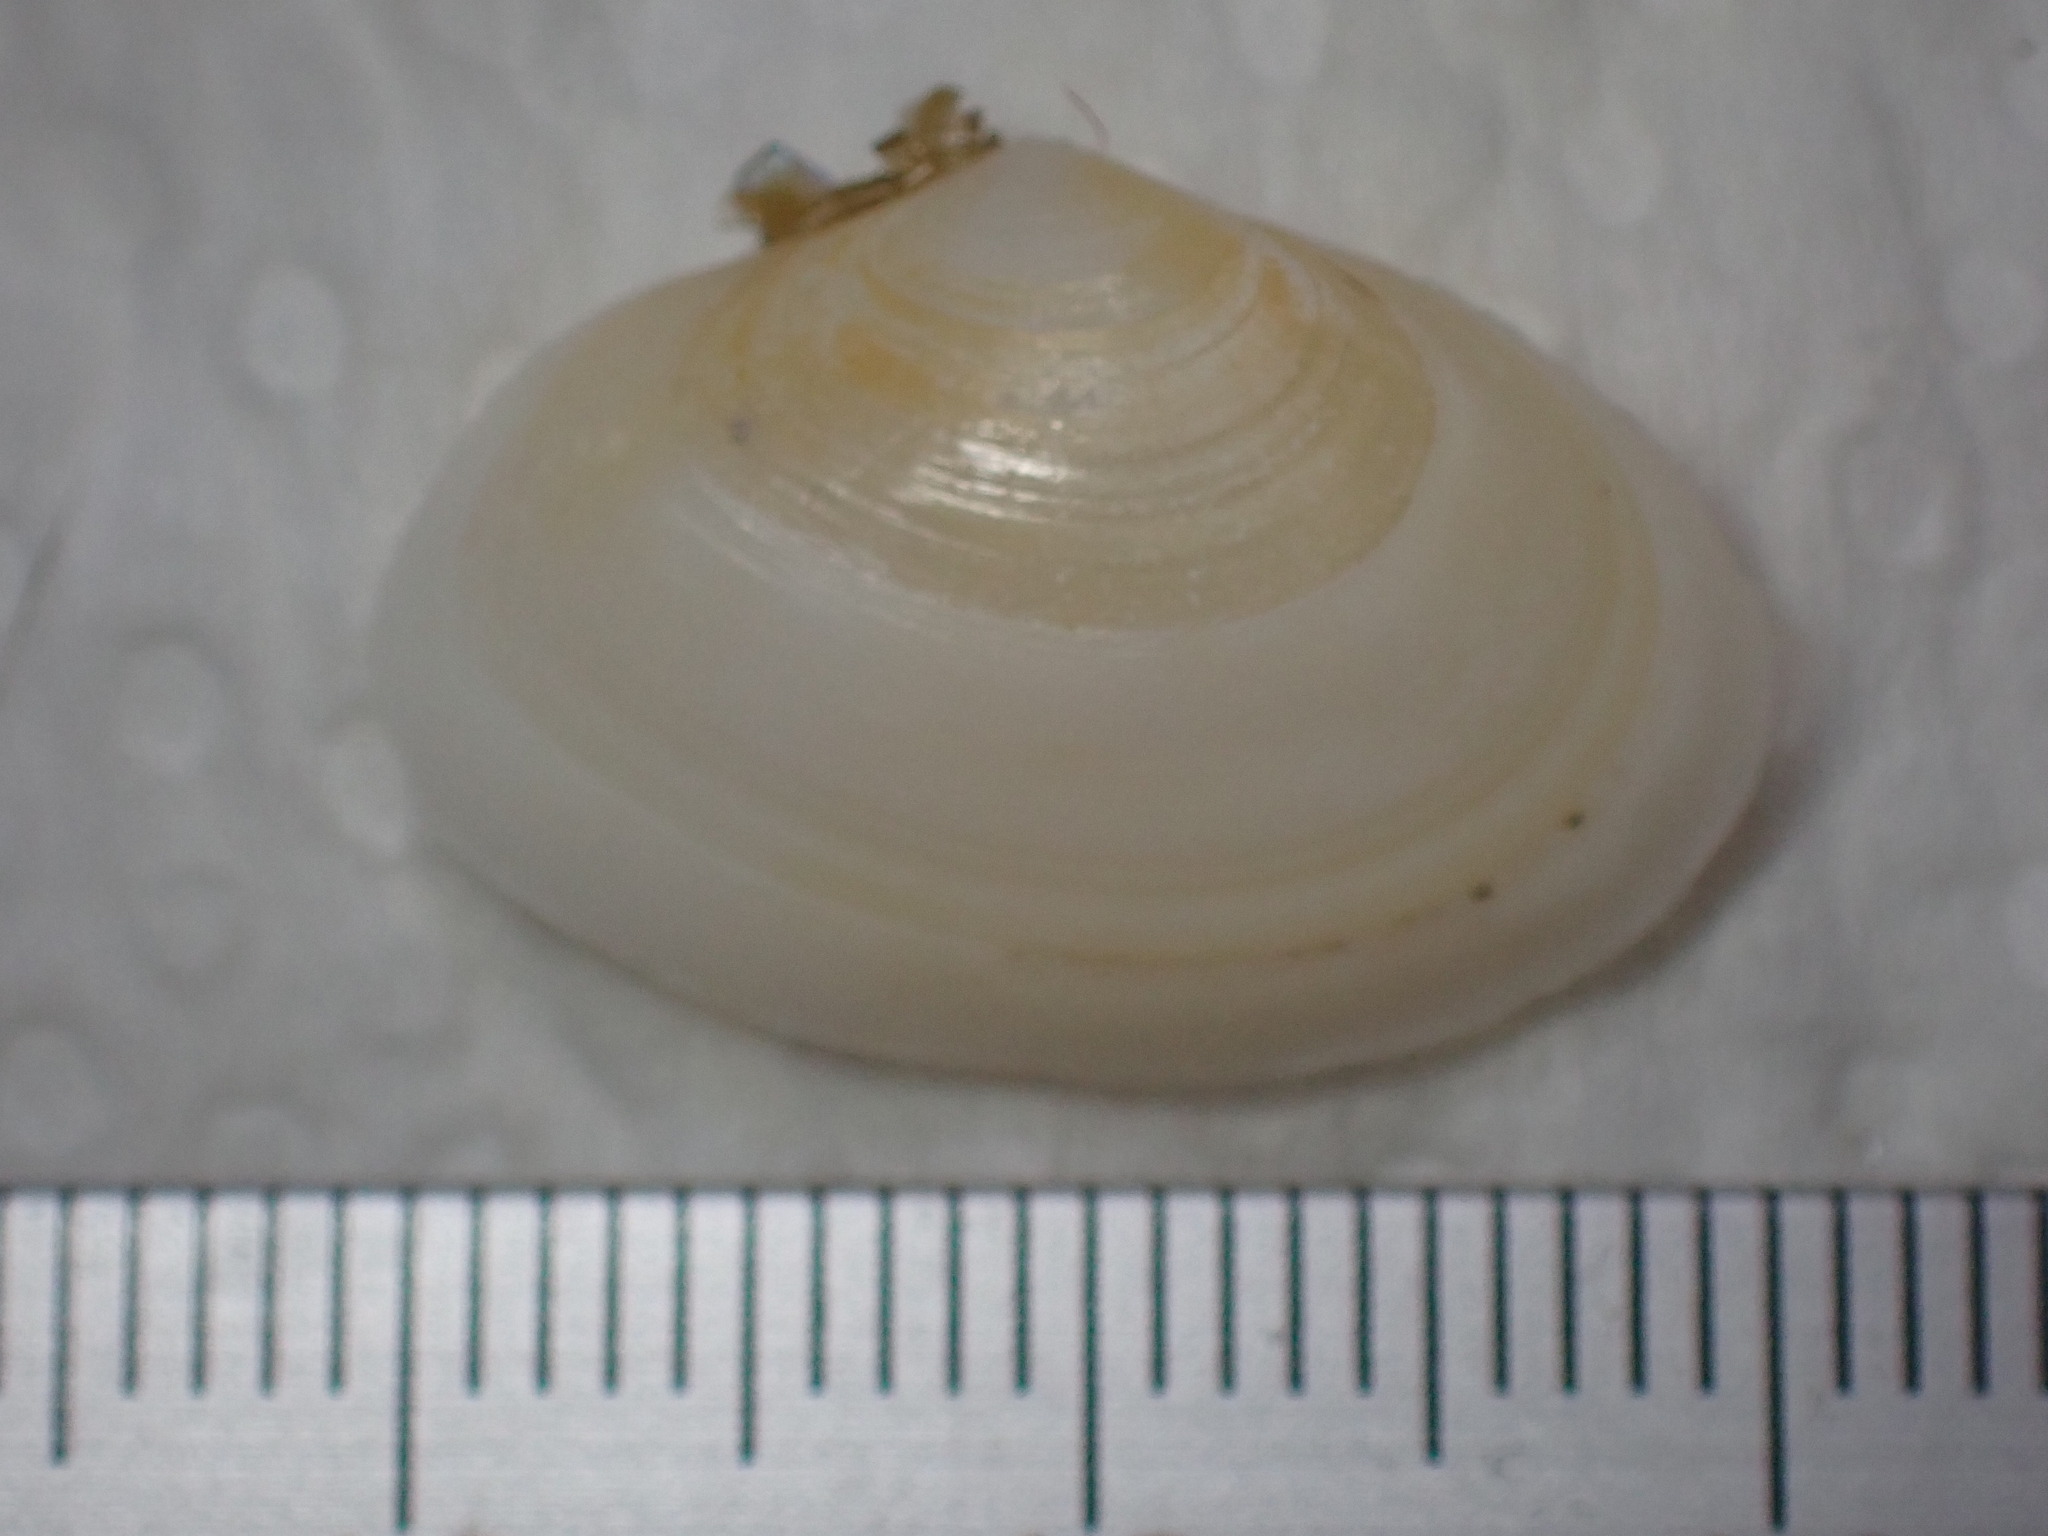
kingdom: Animalia
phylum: Mollusca
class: Bivalvia
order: Cardiida
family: Tellinidae
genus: Macomangulus
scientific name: Macomangulus tenuis
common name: Thin tellin
